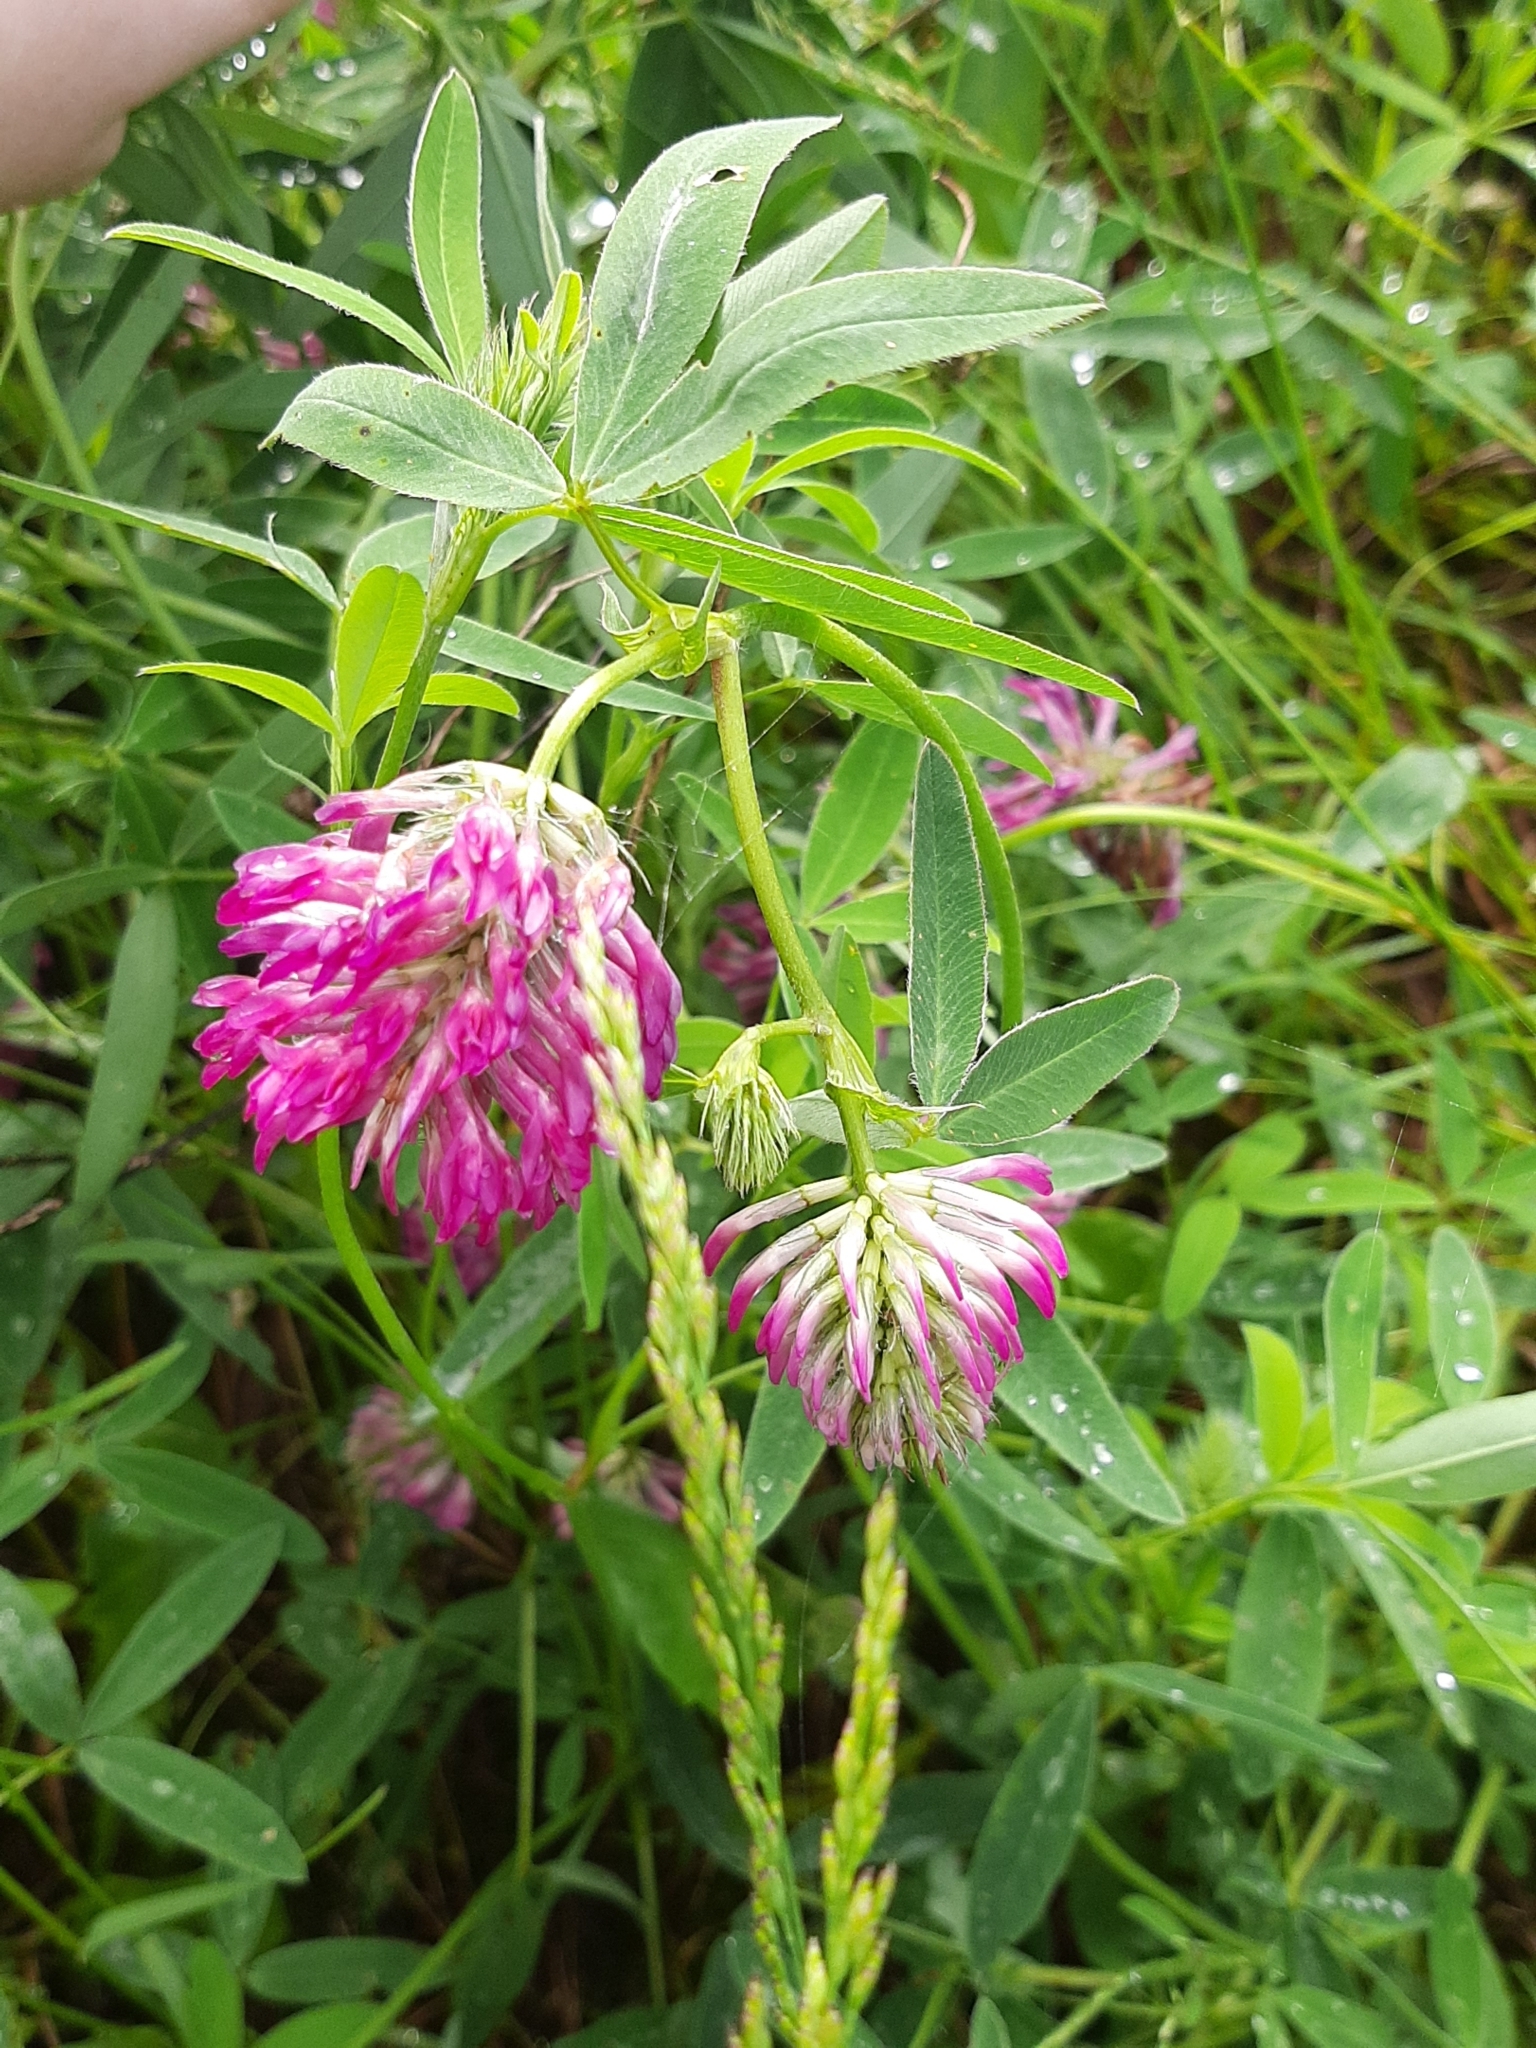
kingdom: Plantae
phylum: Tracheophyta
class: Magnoliopsida
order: Fabales
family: Fabaceae
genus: Trifolium
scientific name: Trifolium medium
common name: Zigzag clover
